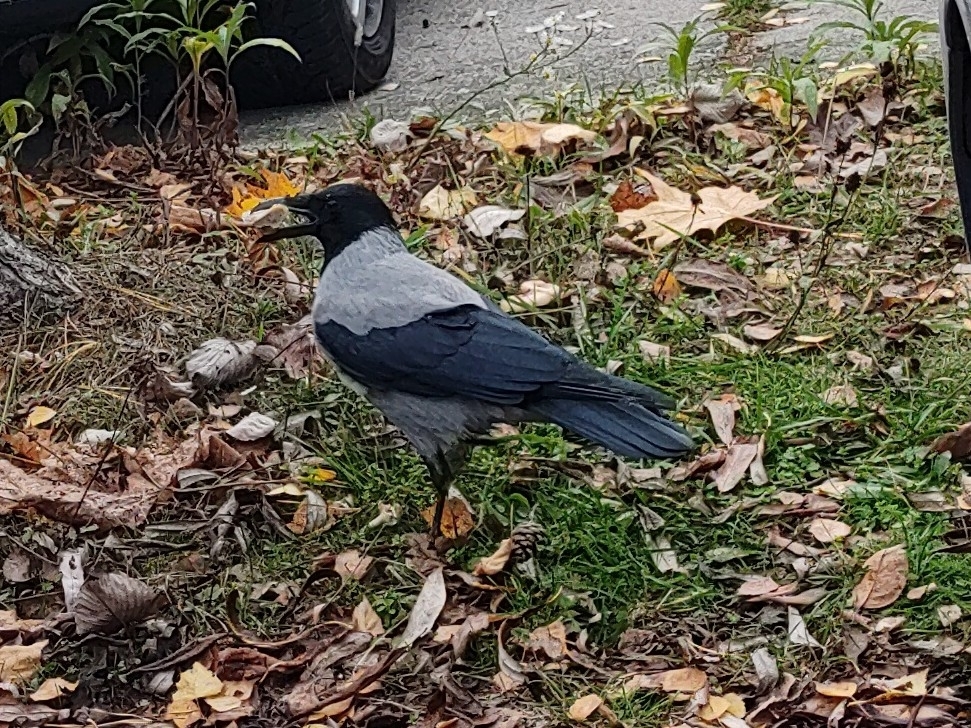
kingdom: Animalia
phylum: Chordata
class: Aves
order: Passeriformes
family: Corvidae
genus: Corvus
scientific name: Corvus cornix
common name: Hooded crow
